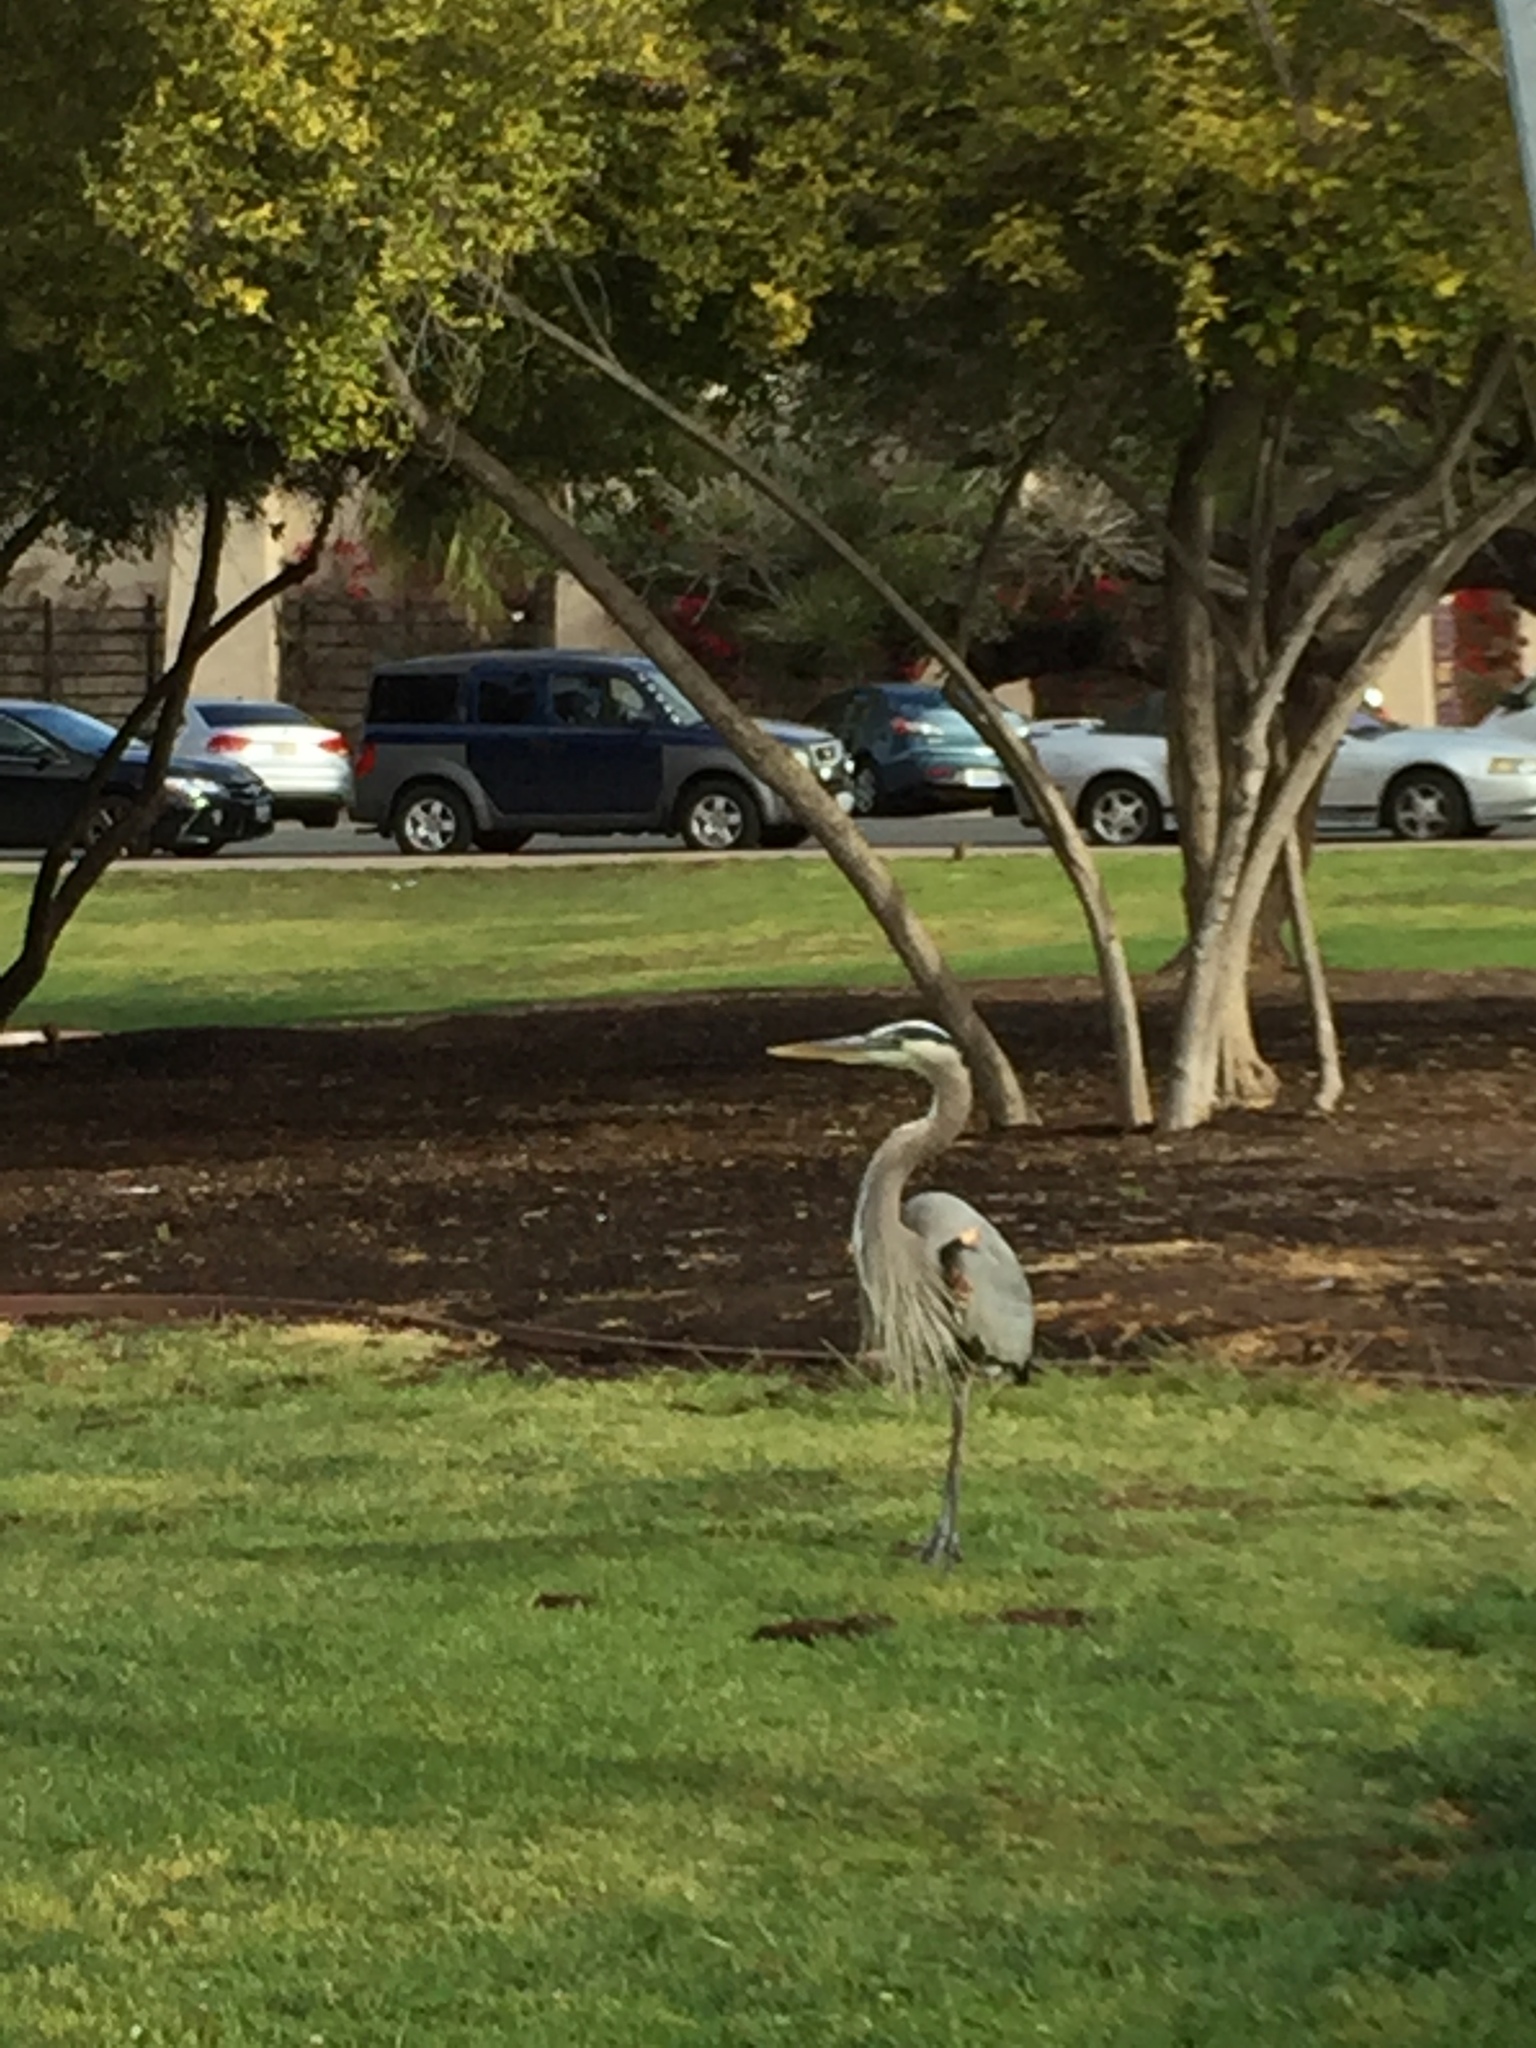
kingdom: Animalia
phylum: Chordata
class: Aves
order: Pelecaniformes
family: Ardeidae
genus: Ardea
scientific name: Ardea herodias
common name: Great blue heron
